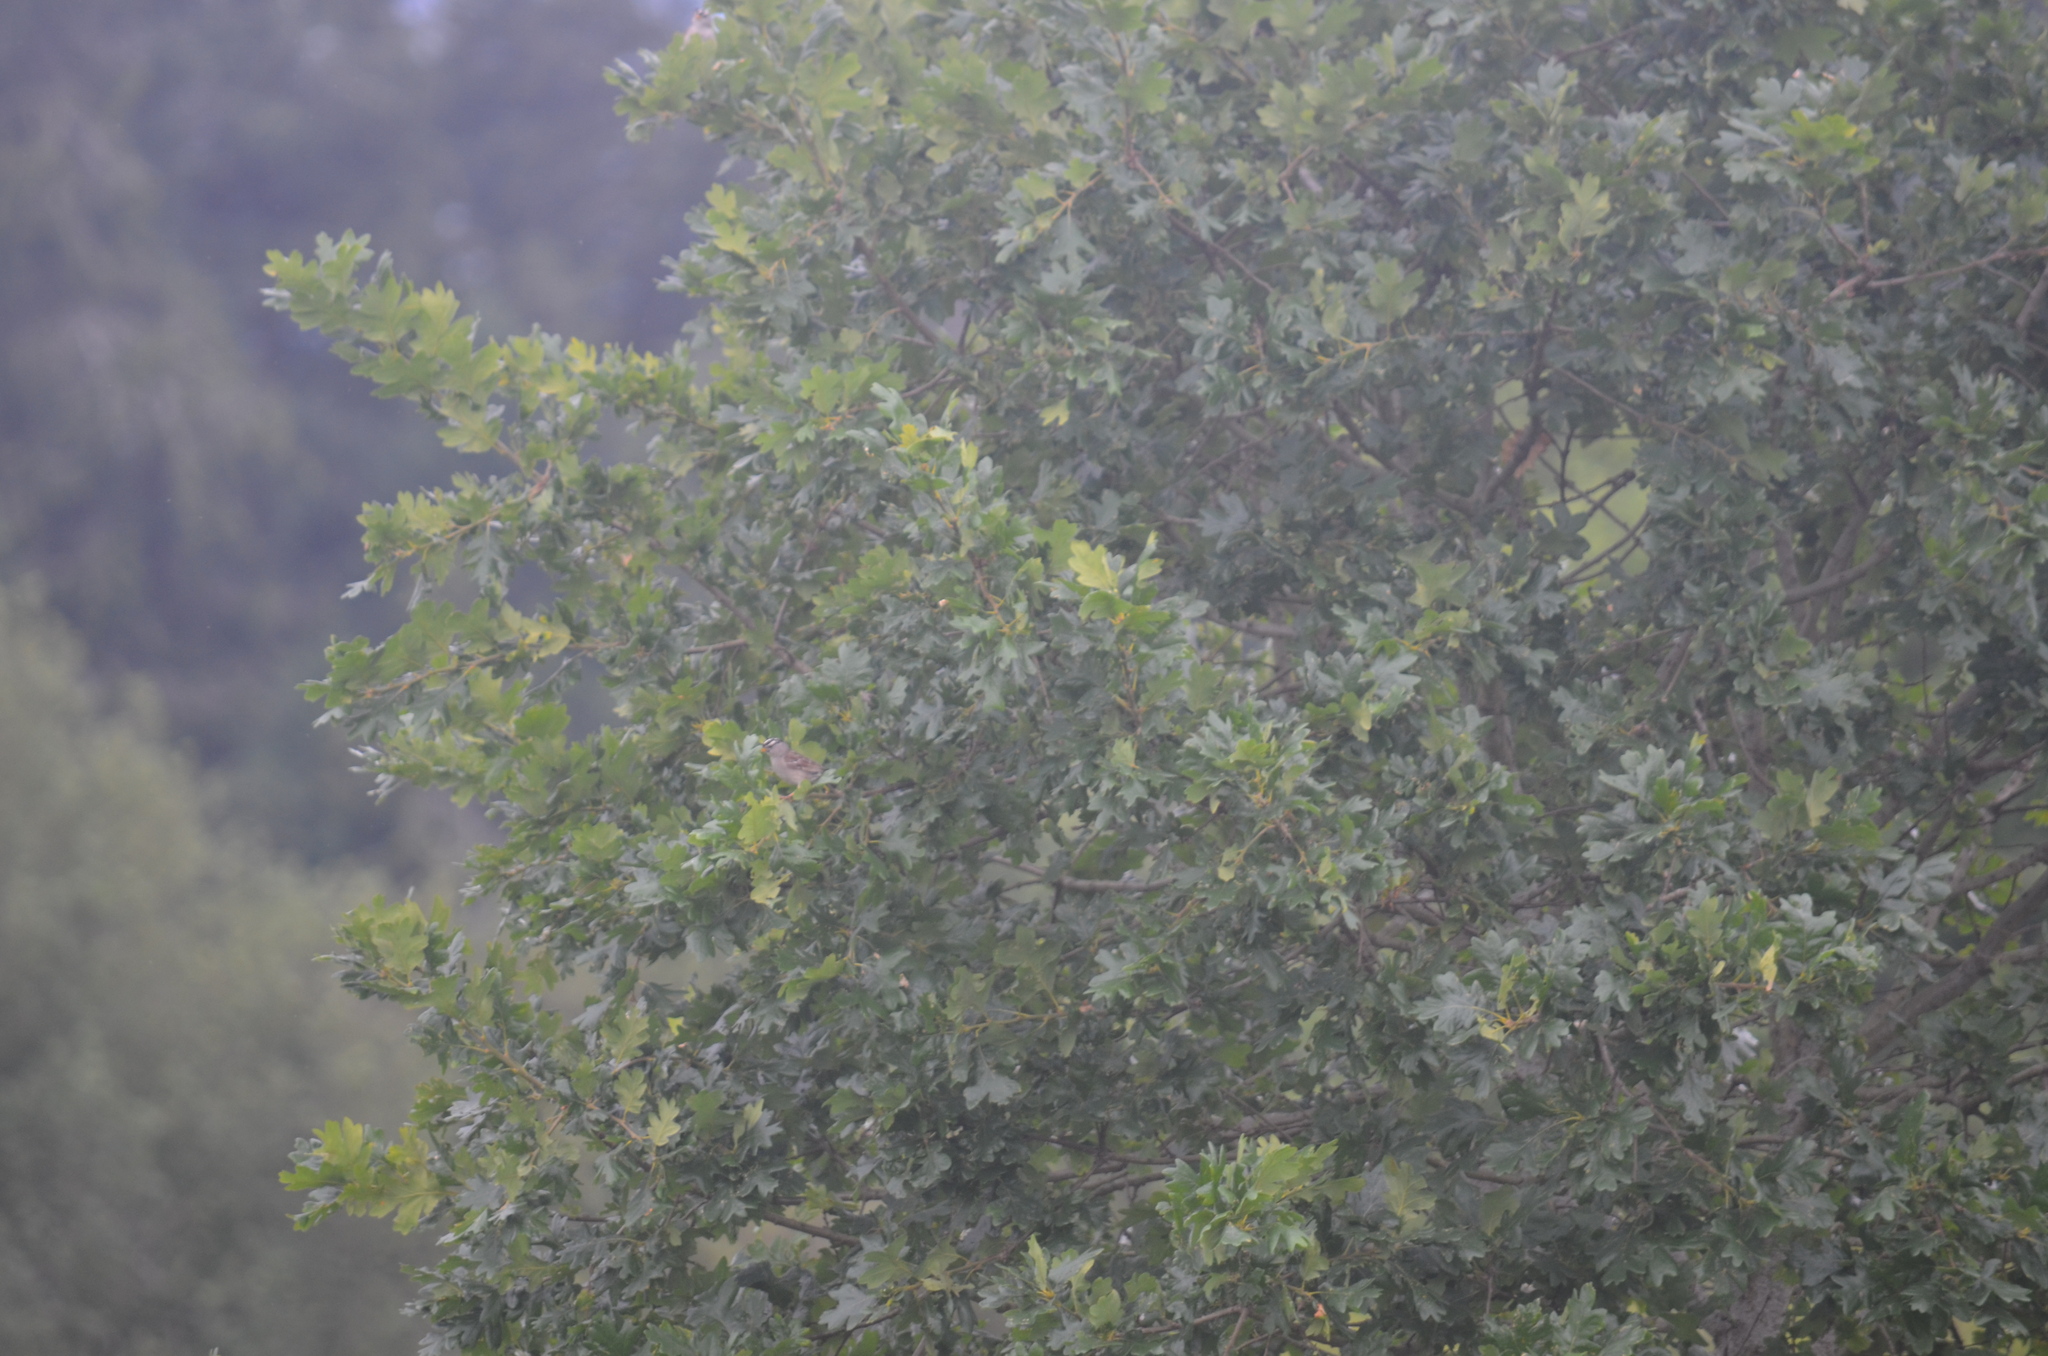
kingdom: Animalia
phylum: Chordata
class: Aves
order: Passeriformes
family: Passerellidae
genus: Zonotrichia
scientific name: Zonotrichia leucophrys
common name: White-crowned sparrow
